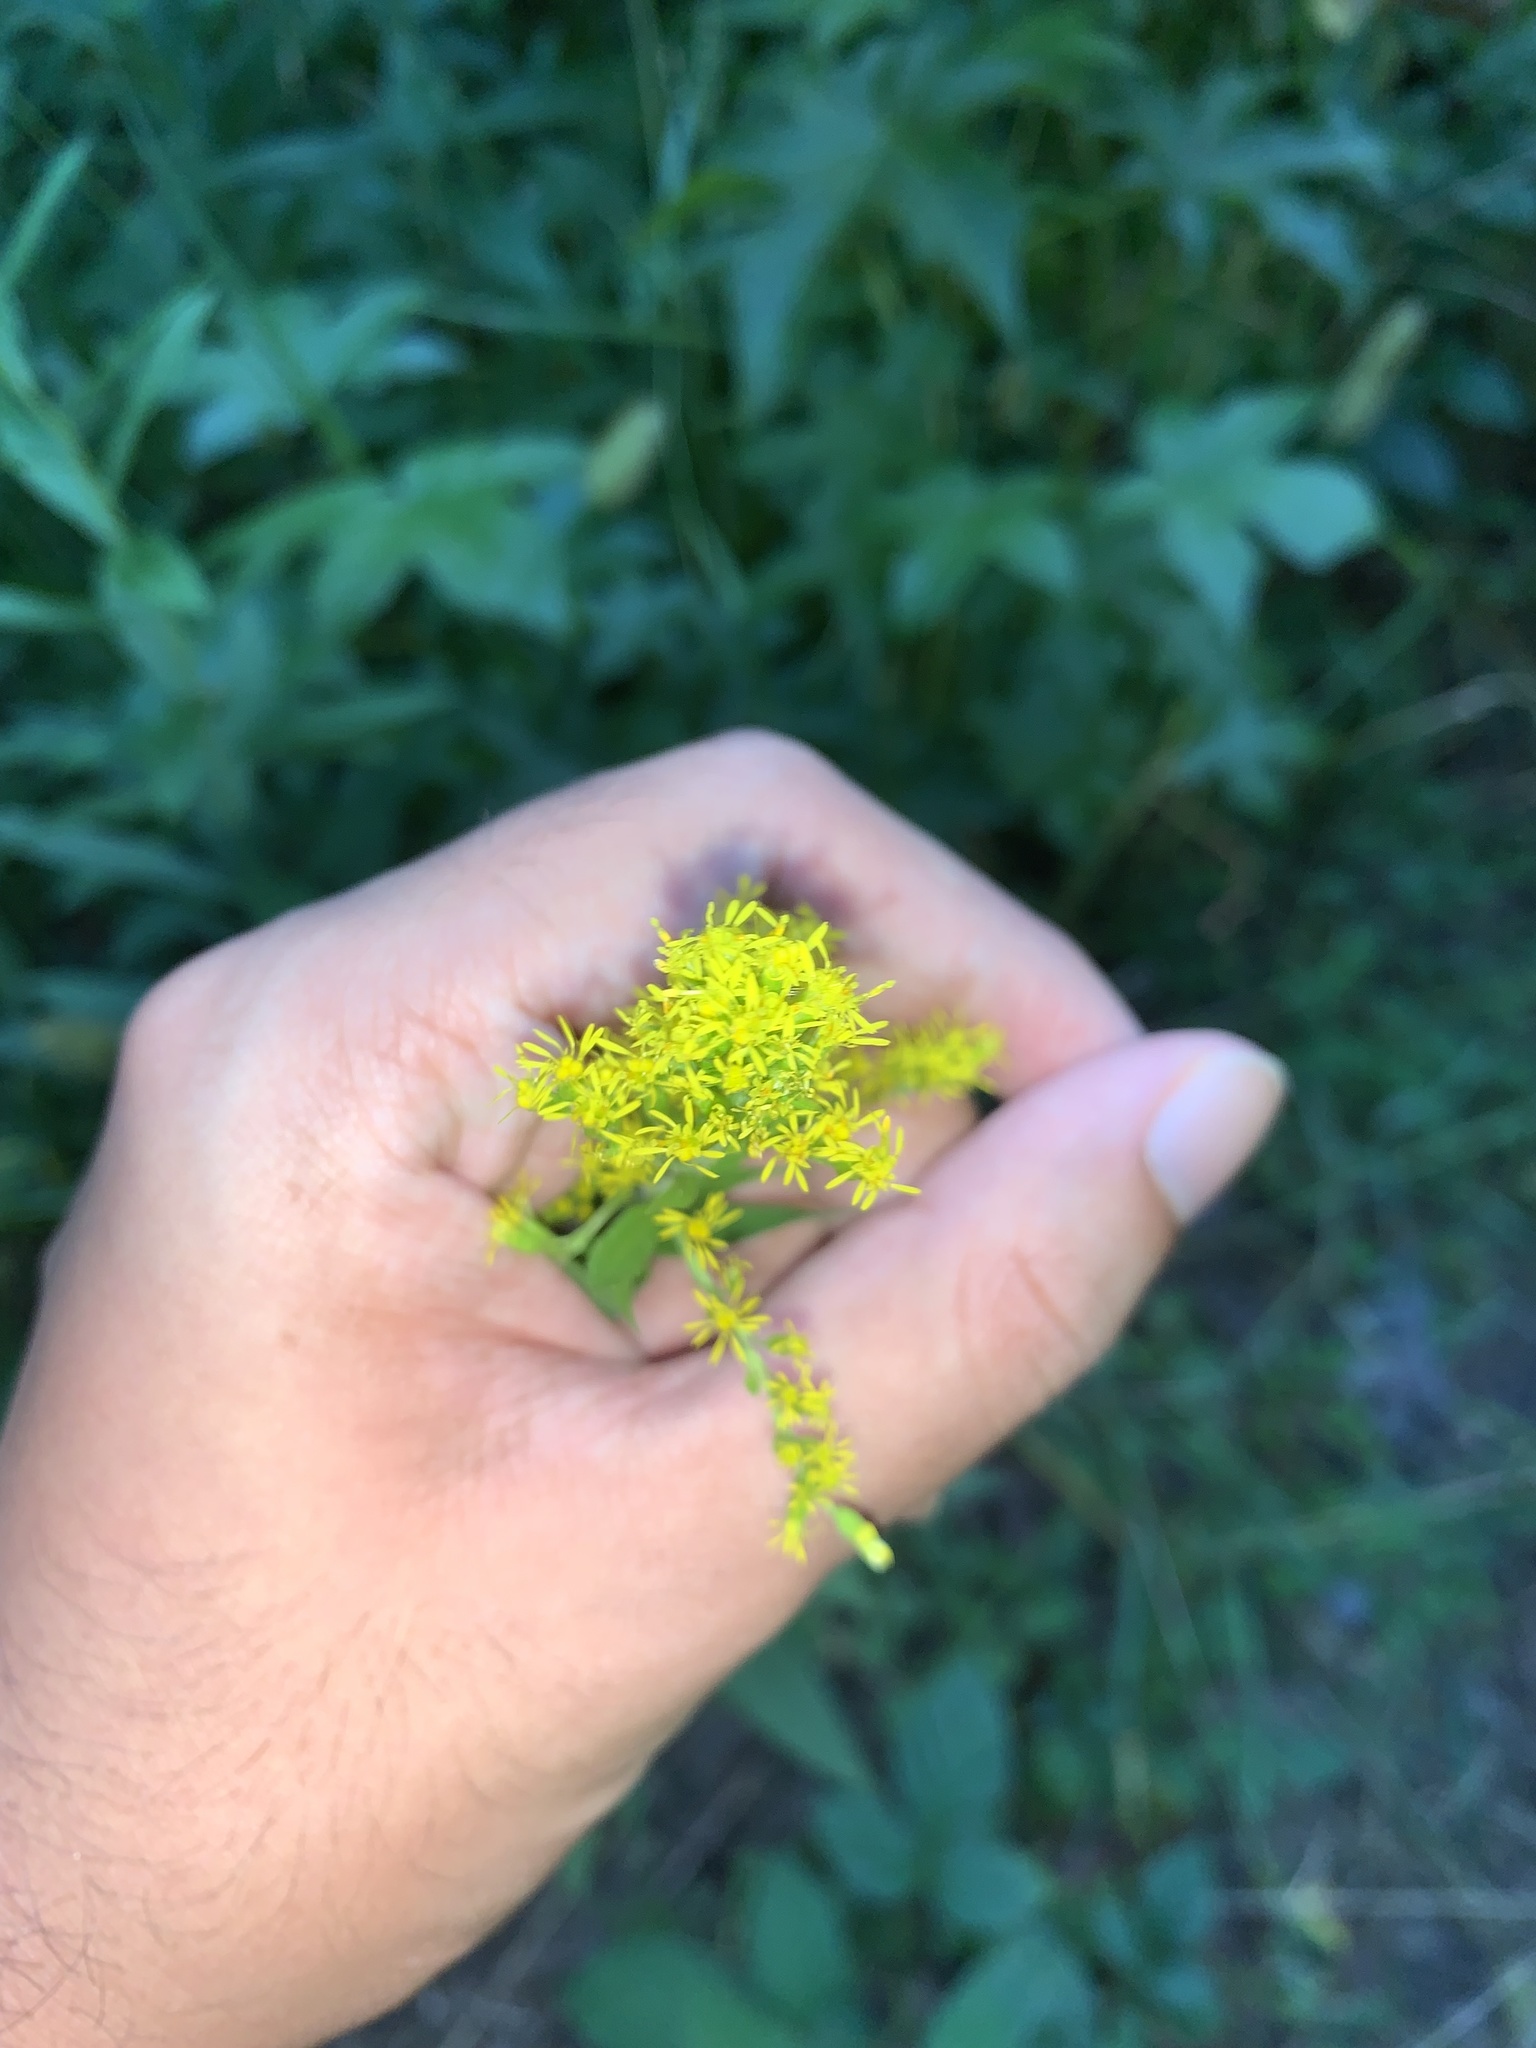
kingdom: Plantae
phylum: Tracheophyta
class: Magnoliopsida
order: Asterales
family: Asteraceae
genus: Solidago
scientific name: Solidago altissima
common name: Late goldenrod
